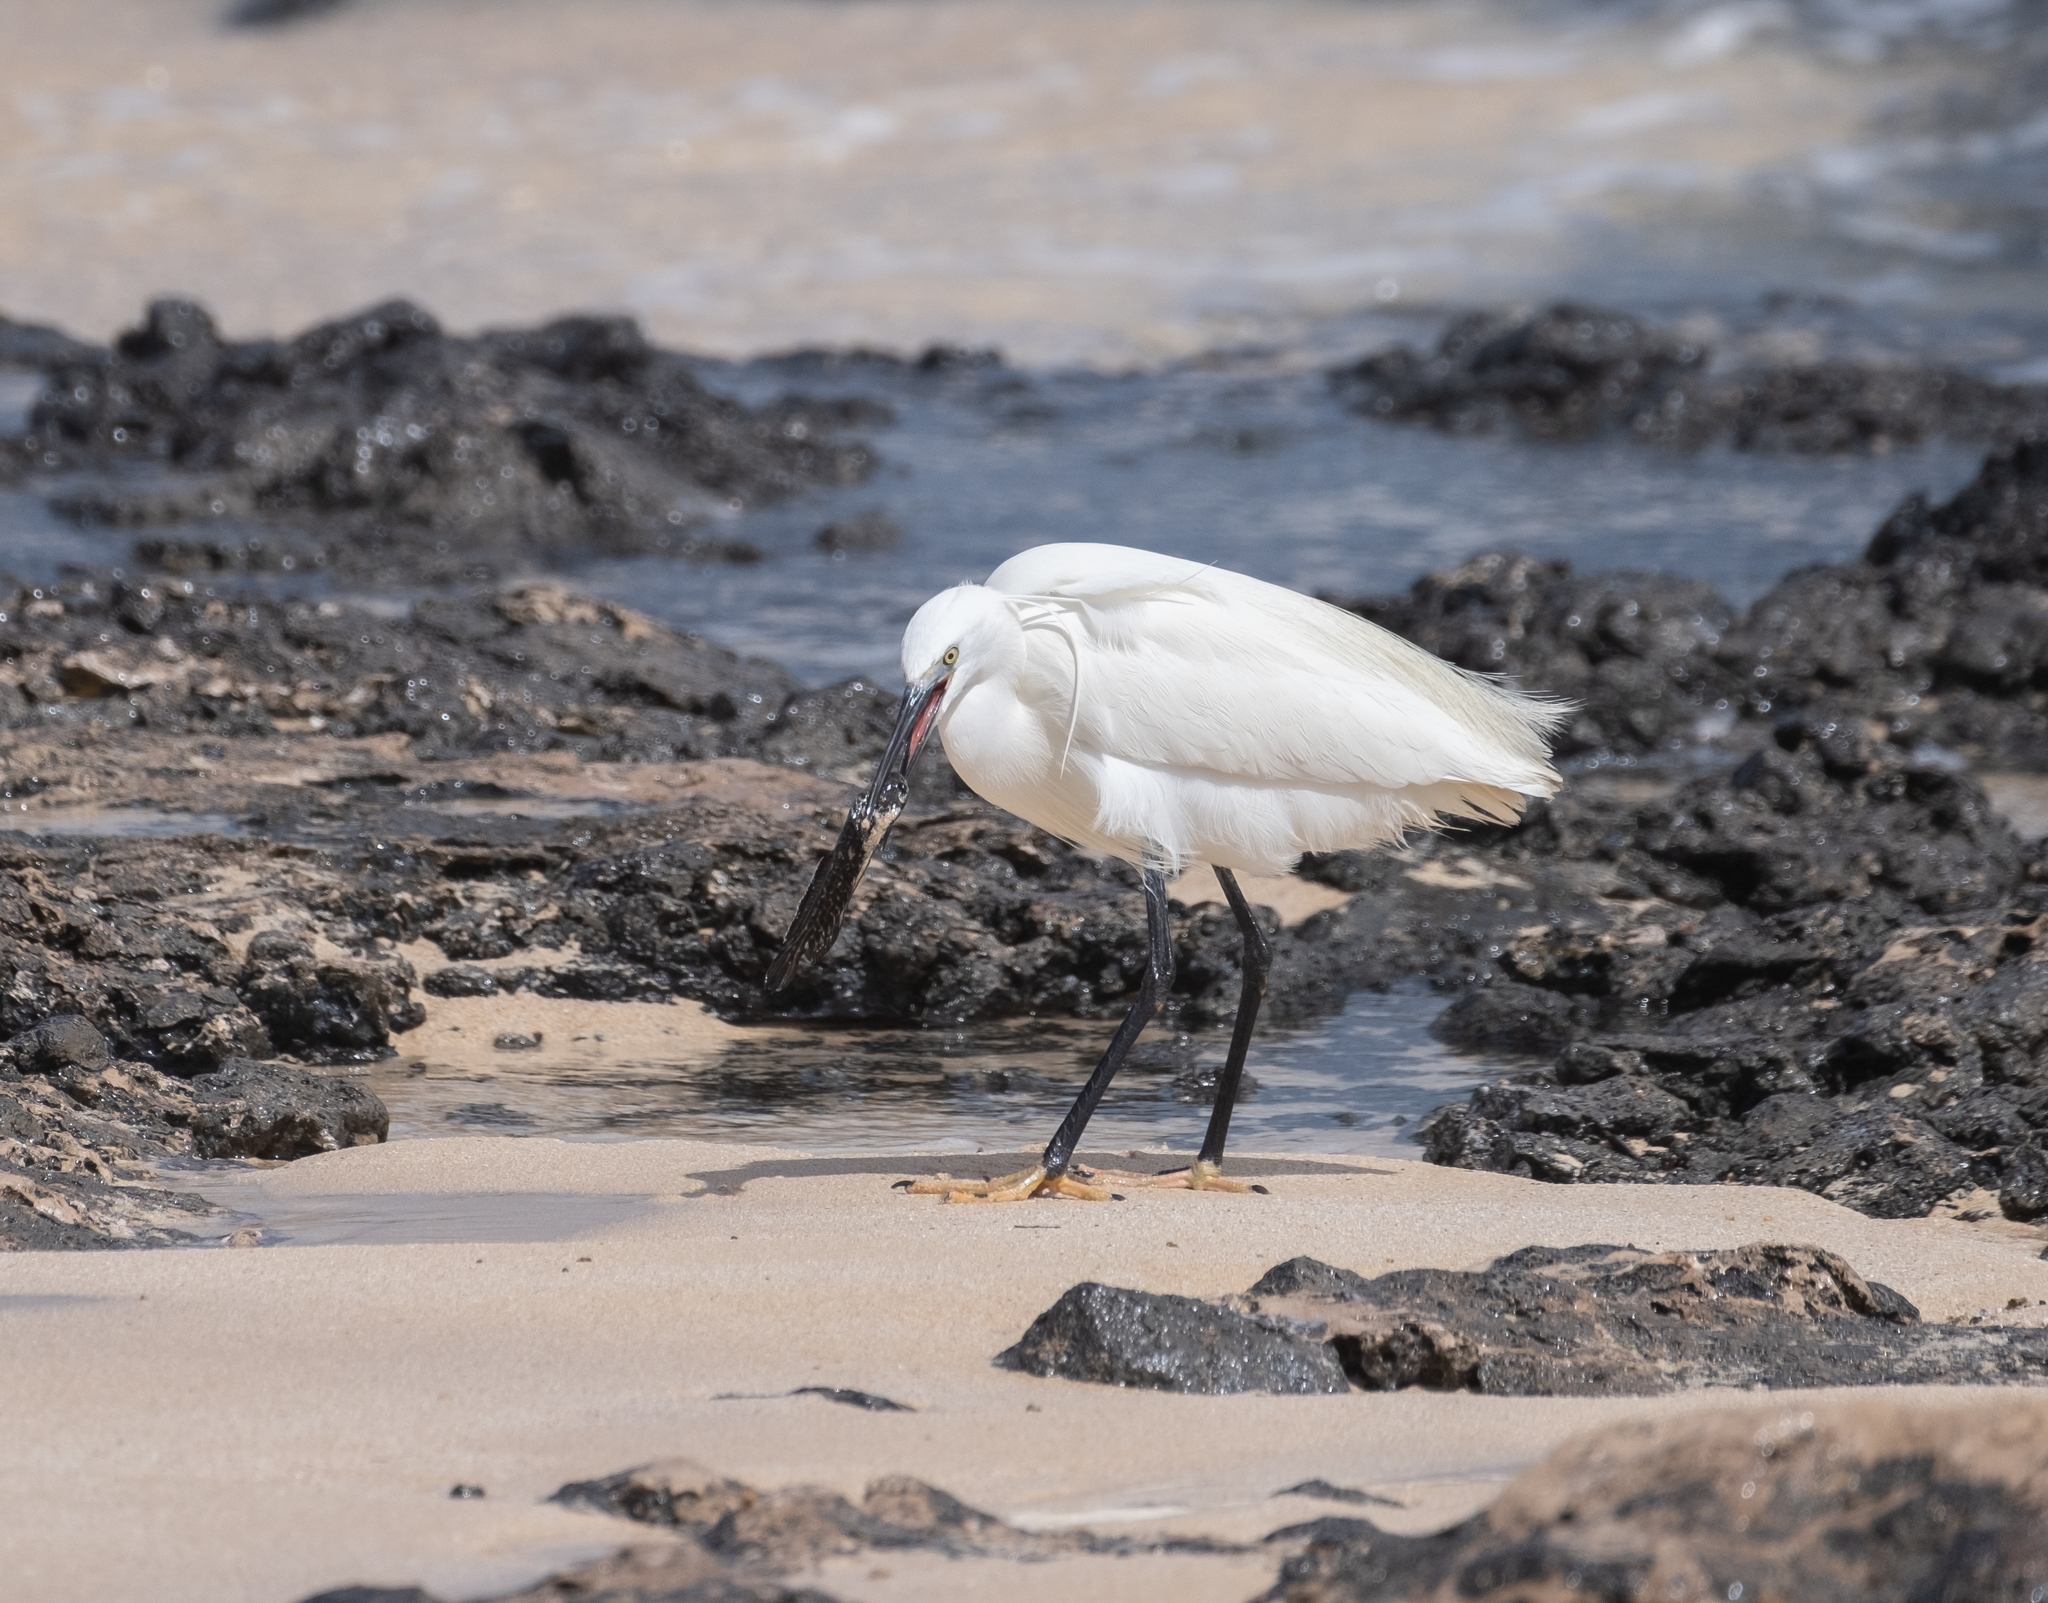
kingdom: Animalia
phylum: Chordata
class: Aves
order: Pelecaniformes
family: Ardeidae
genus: Egretta
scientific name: Egretta garzetta
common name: Little egret
